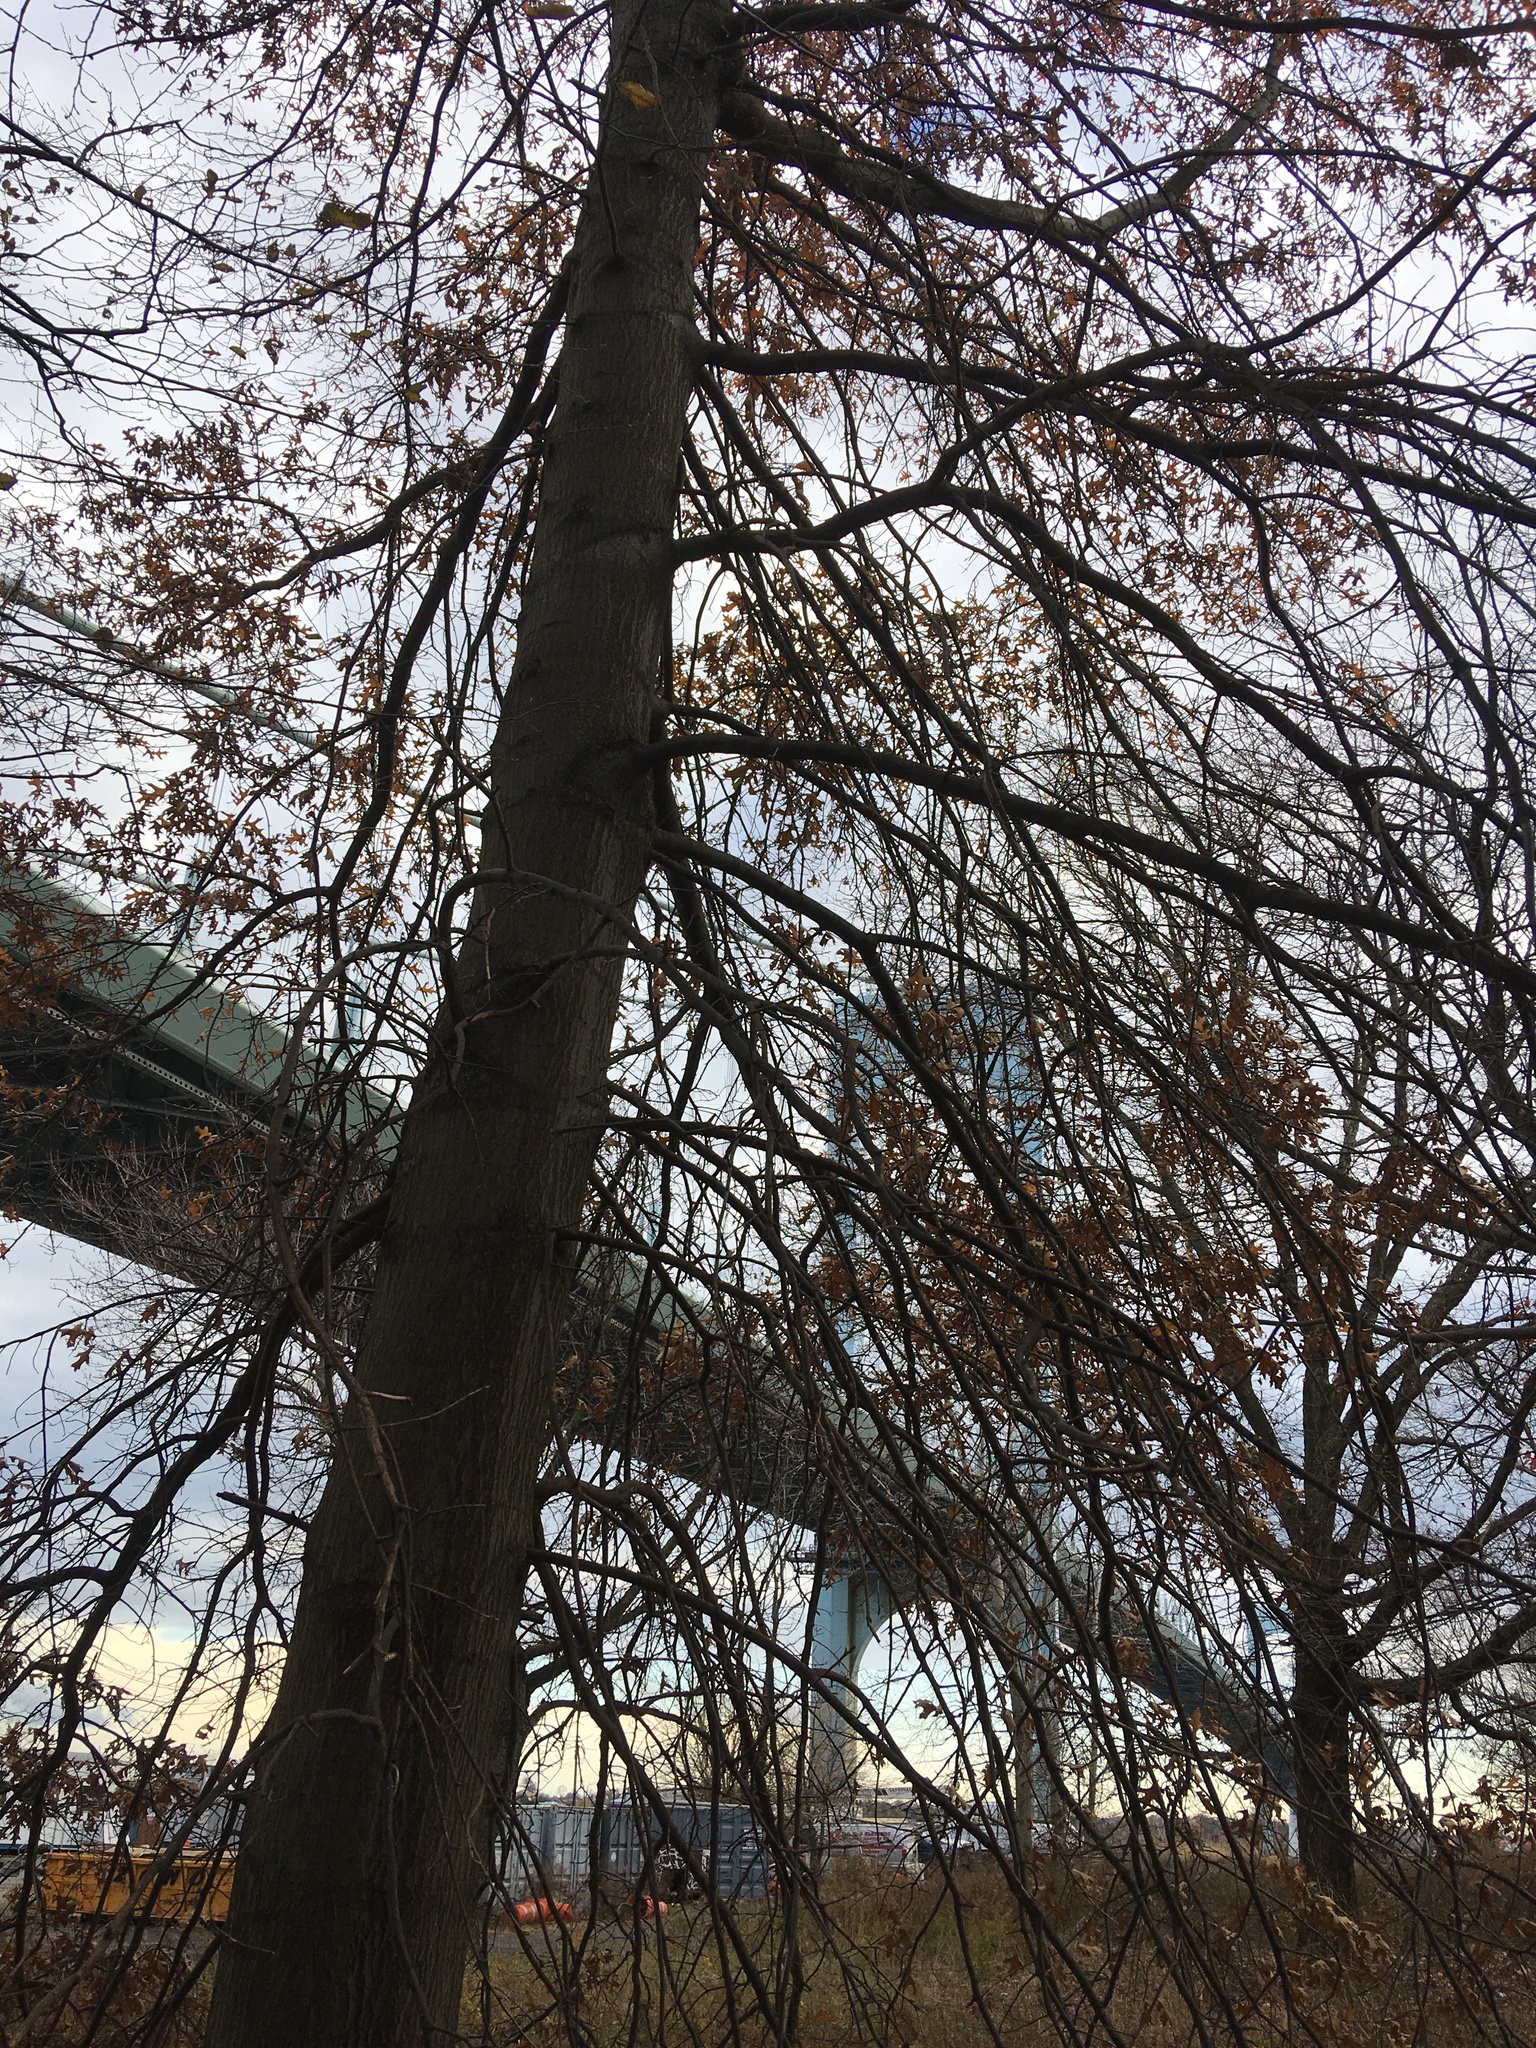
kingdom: Plantae
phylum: Tracheophyta
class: Magnoliopsida
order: Fagales
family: Fagaceae
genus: Quercus
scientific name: Quercus palustris
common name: Pin oak
